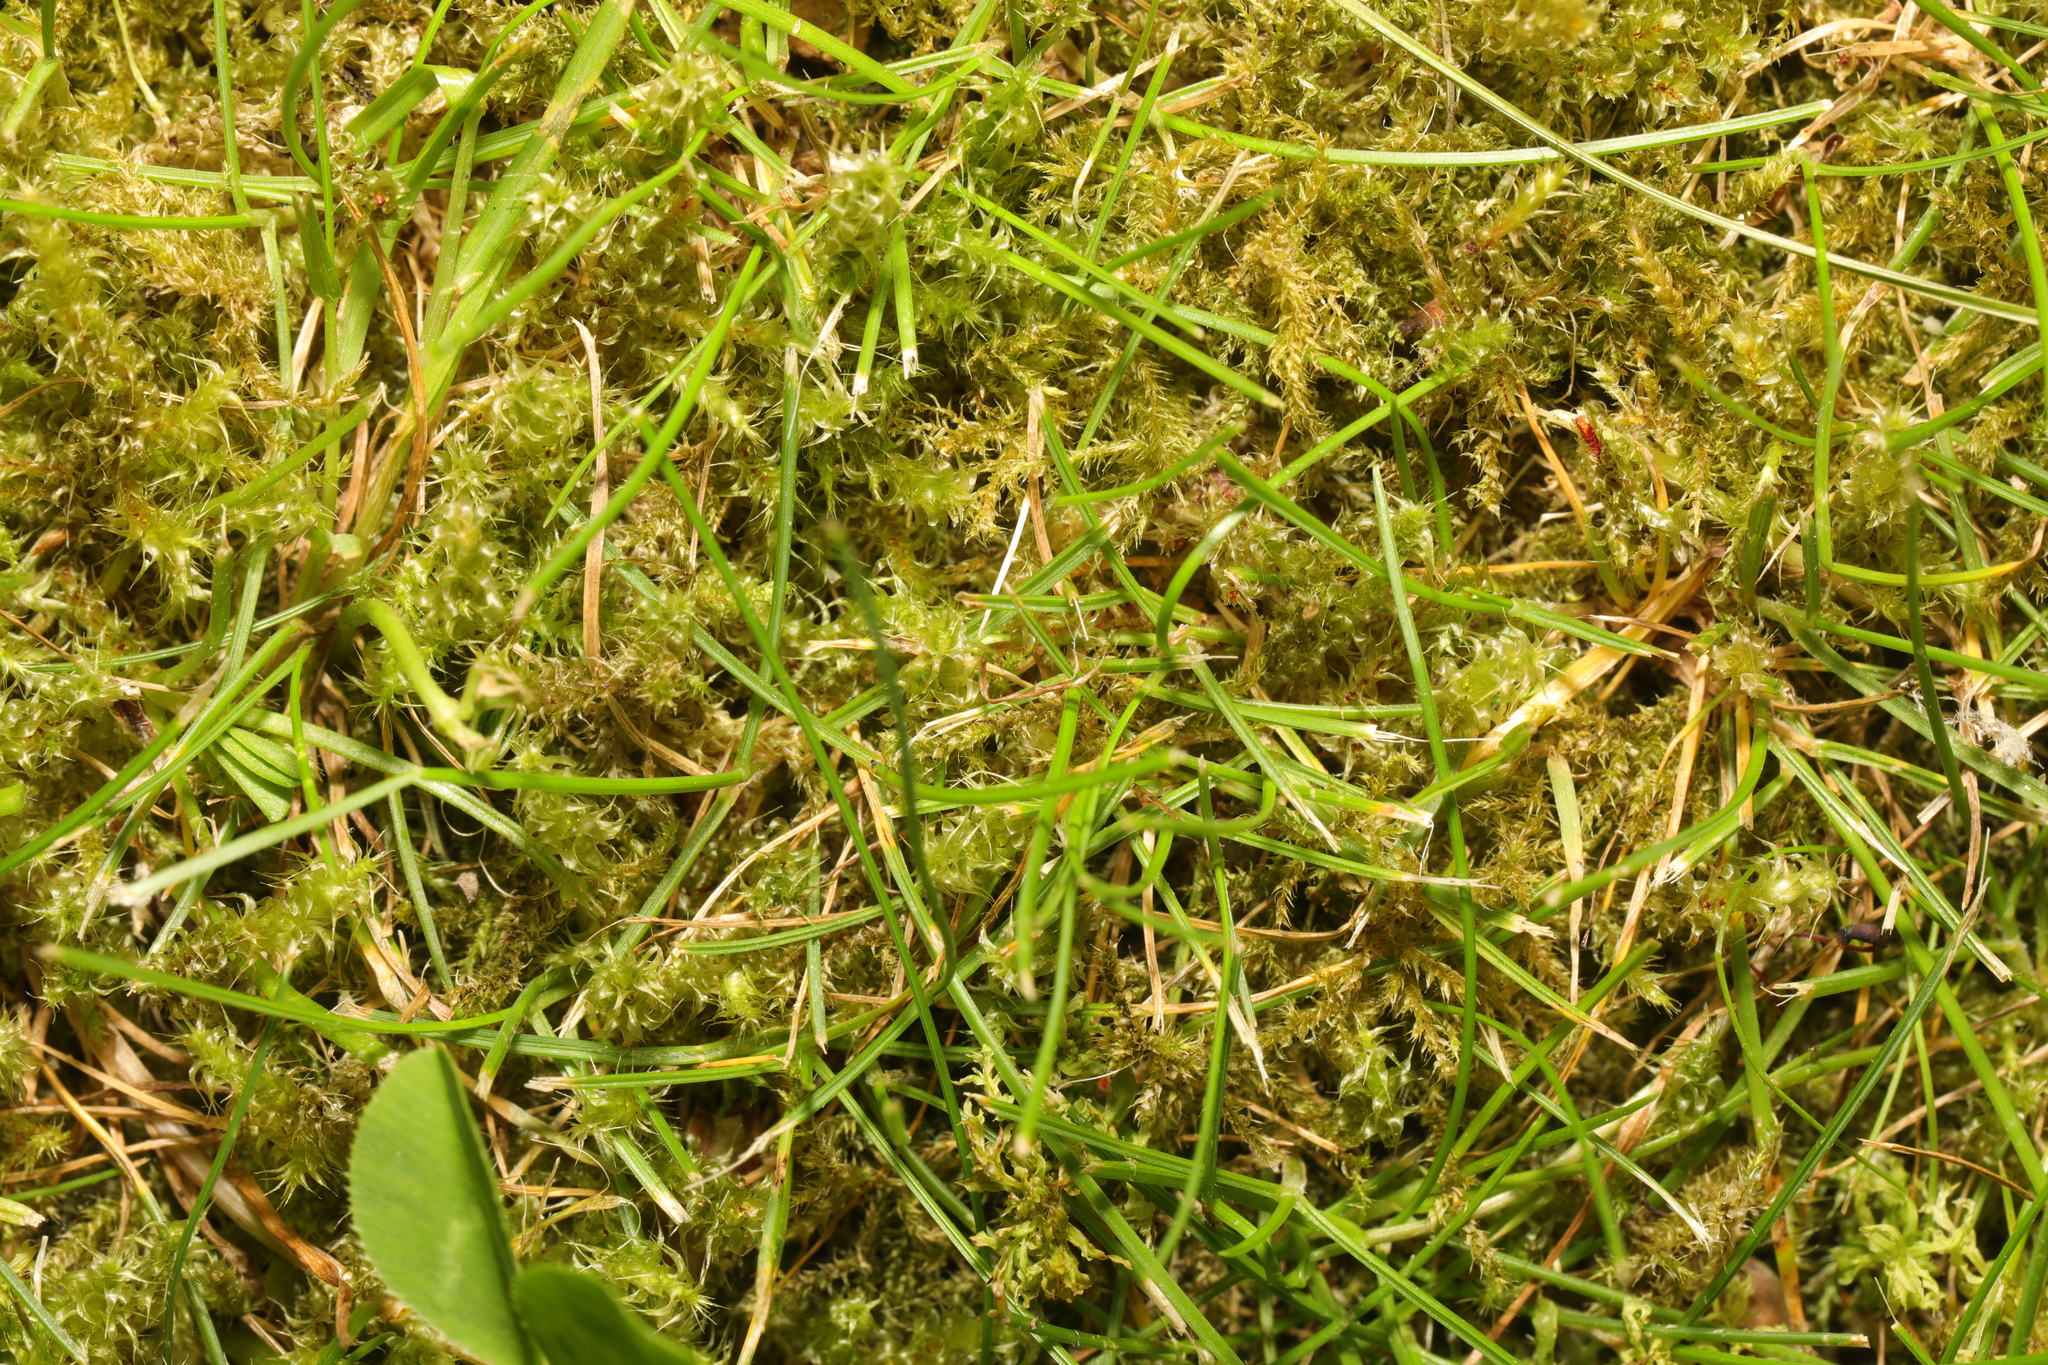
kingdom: Plantae
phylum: Bryophyta
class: Bryopsida
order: Hypnales
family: Hylocomiaceae
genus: Rhytidiadelphus
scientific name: Rhytidiadelphus squarrosus
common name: Springy turf-moss
